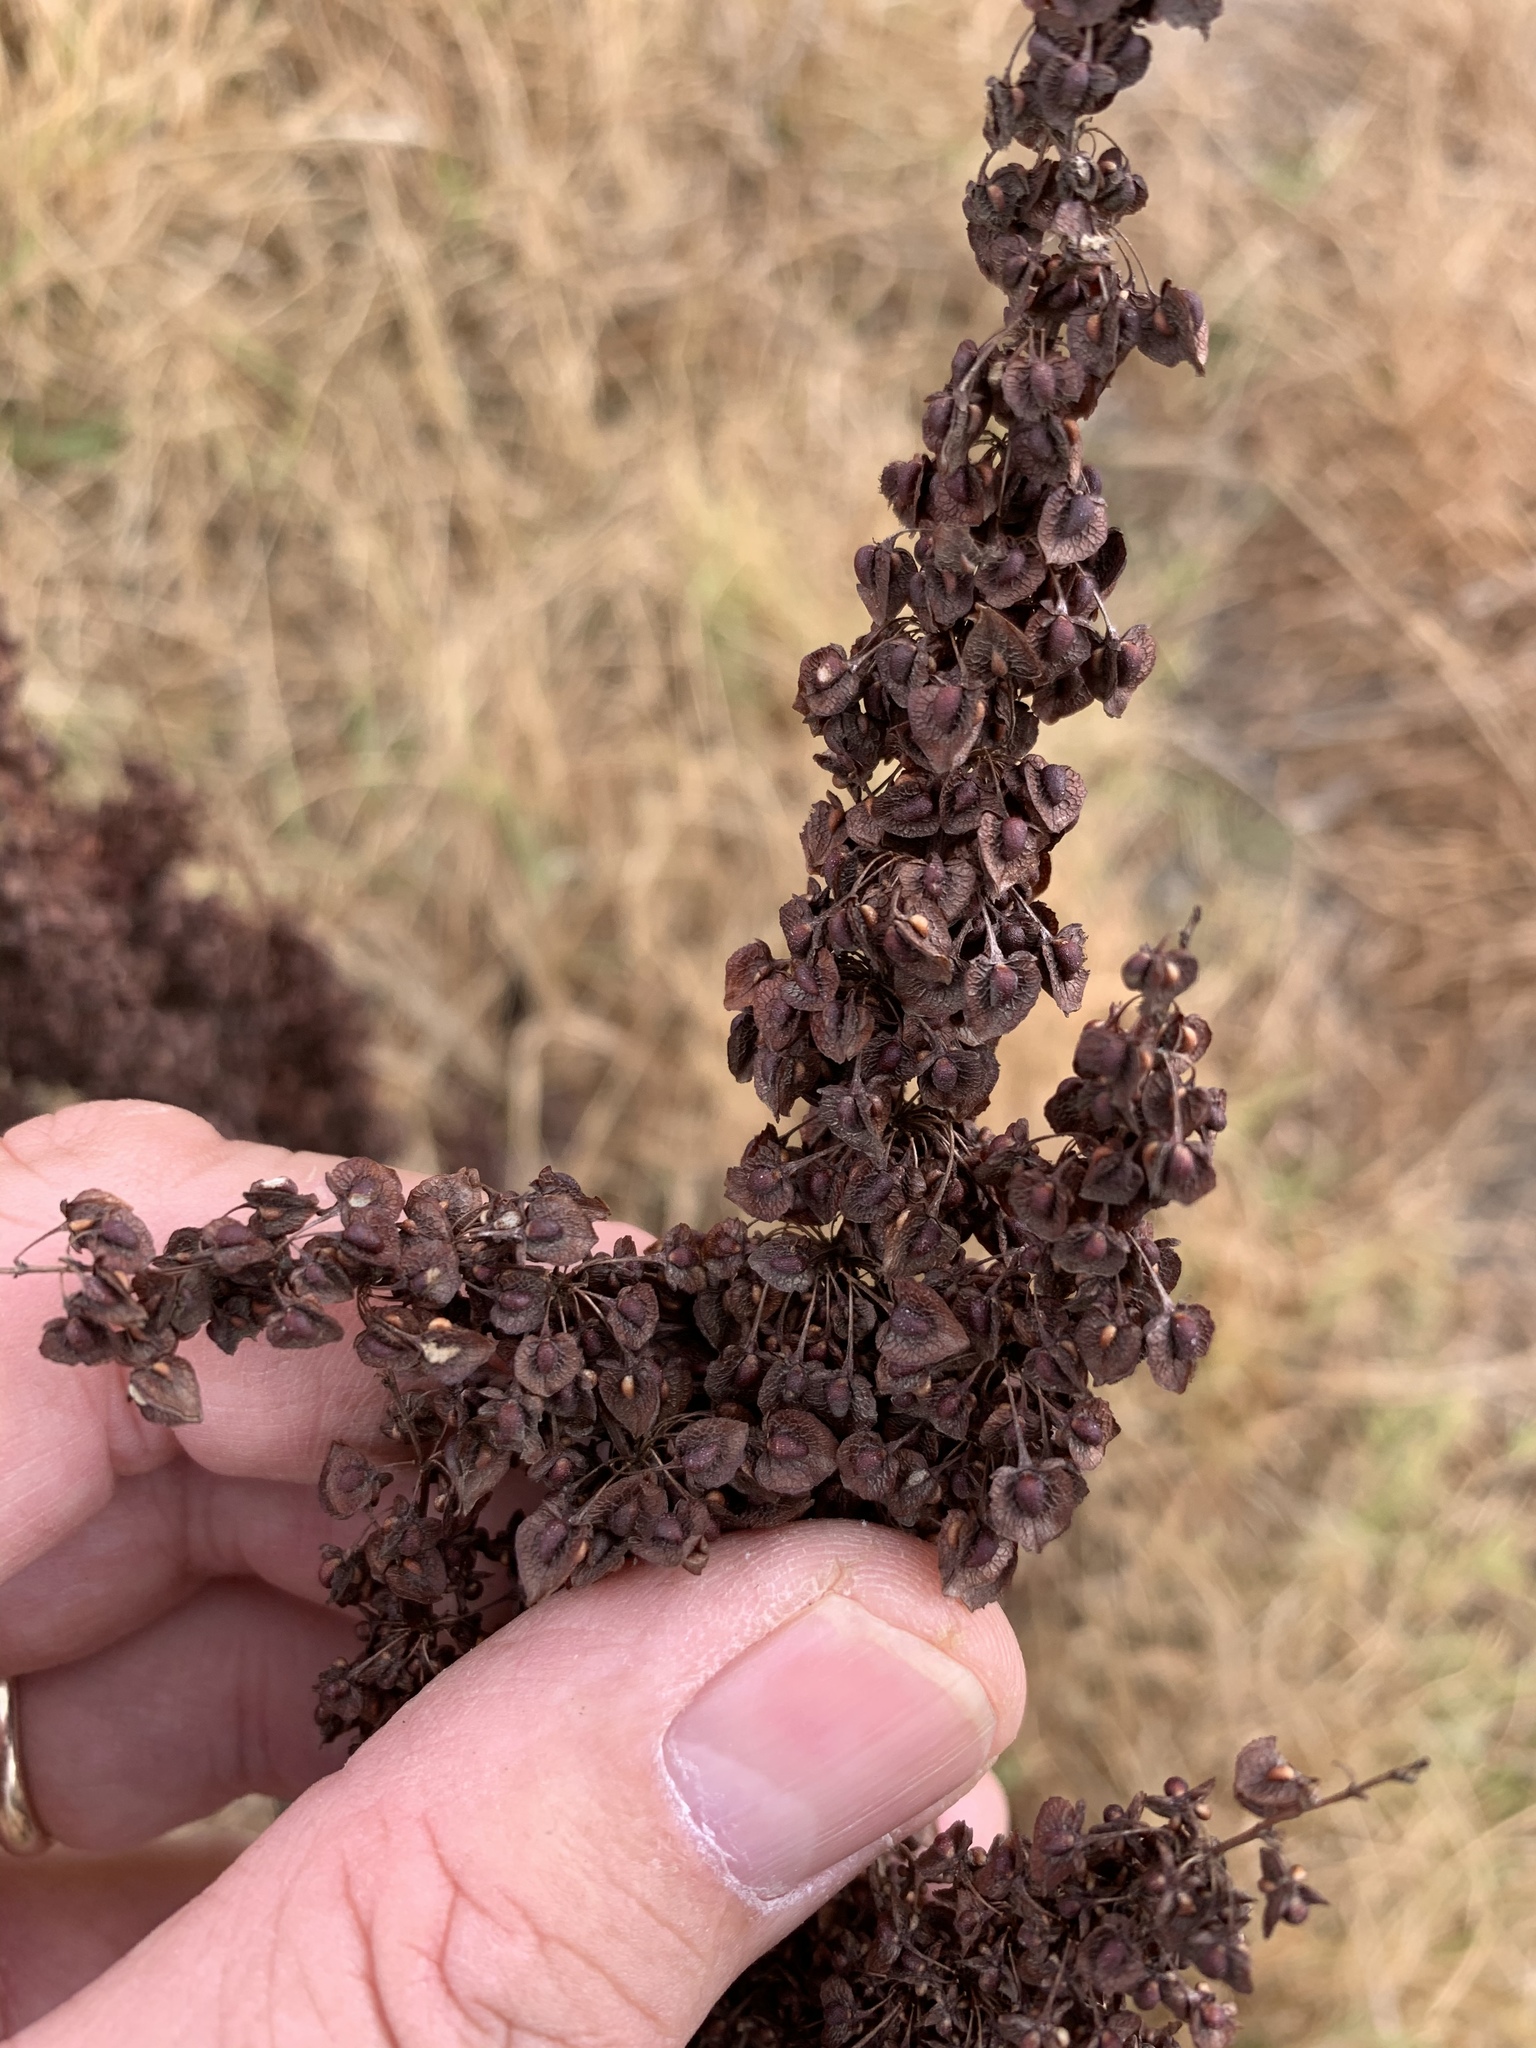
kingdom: Plantae
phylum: Tracheophyta
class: Magnoliopsida
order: Caryophyllales
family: Polygonaceae
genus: Rumex
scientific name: Rumex crispus
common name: Curled dock
